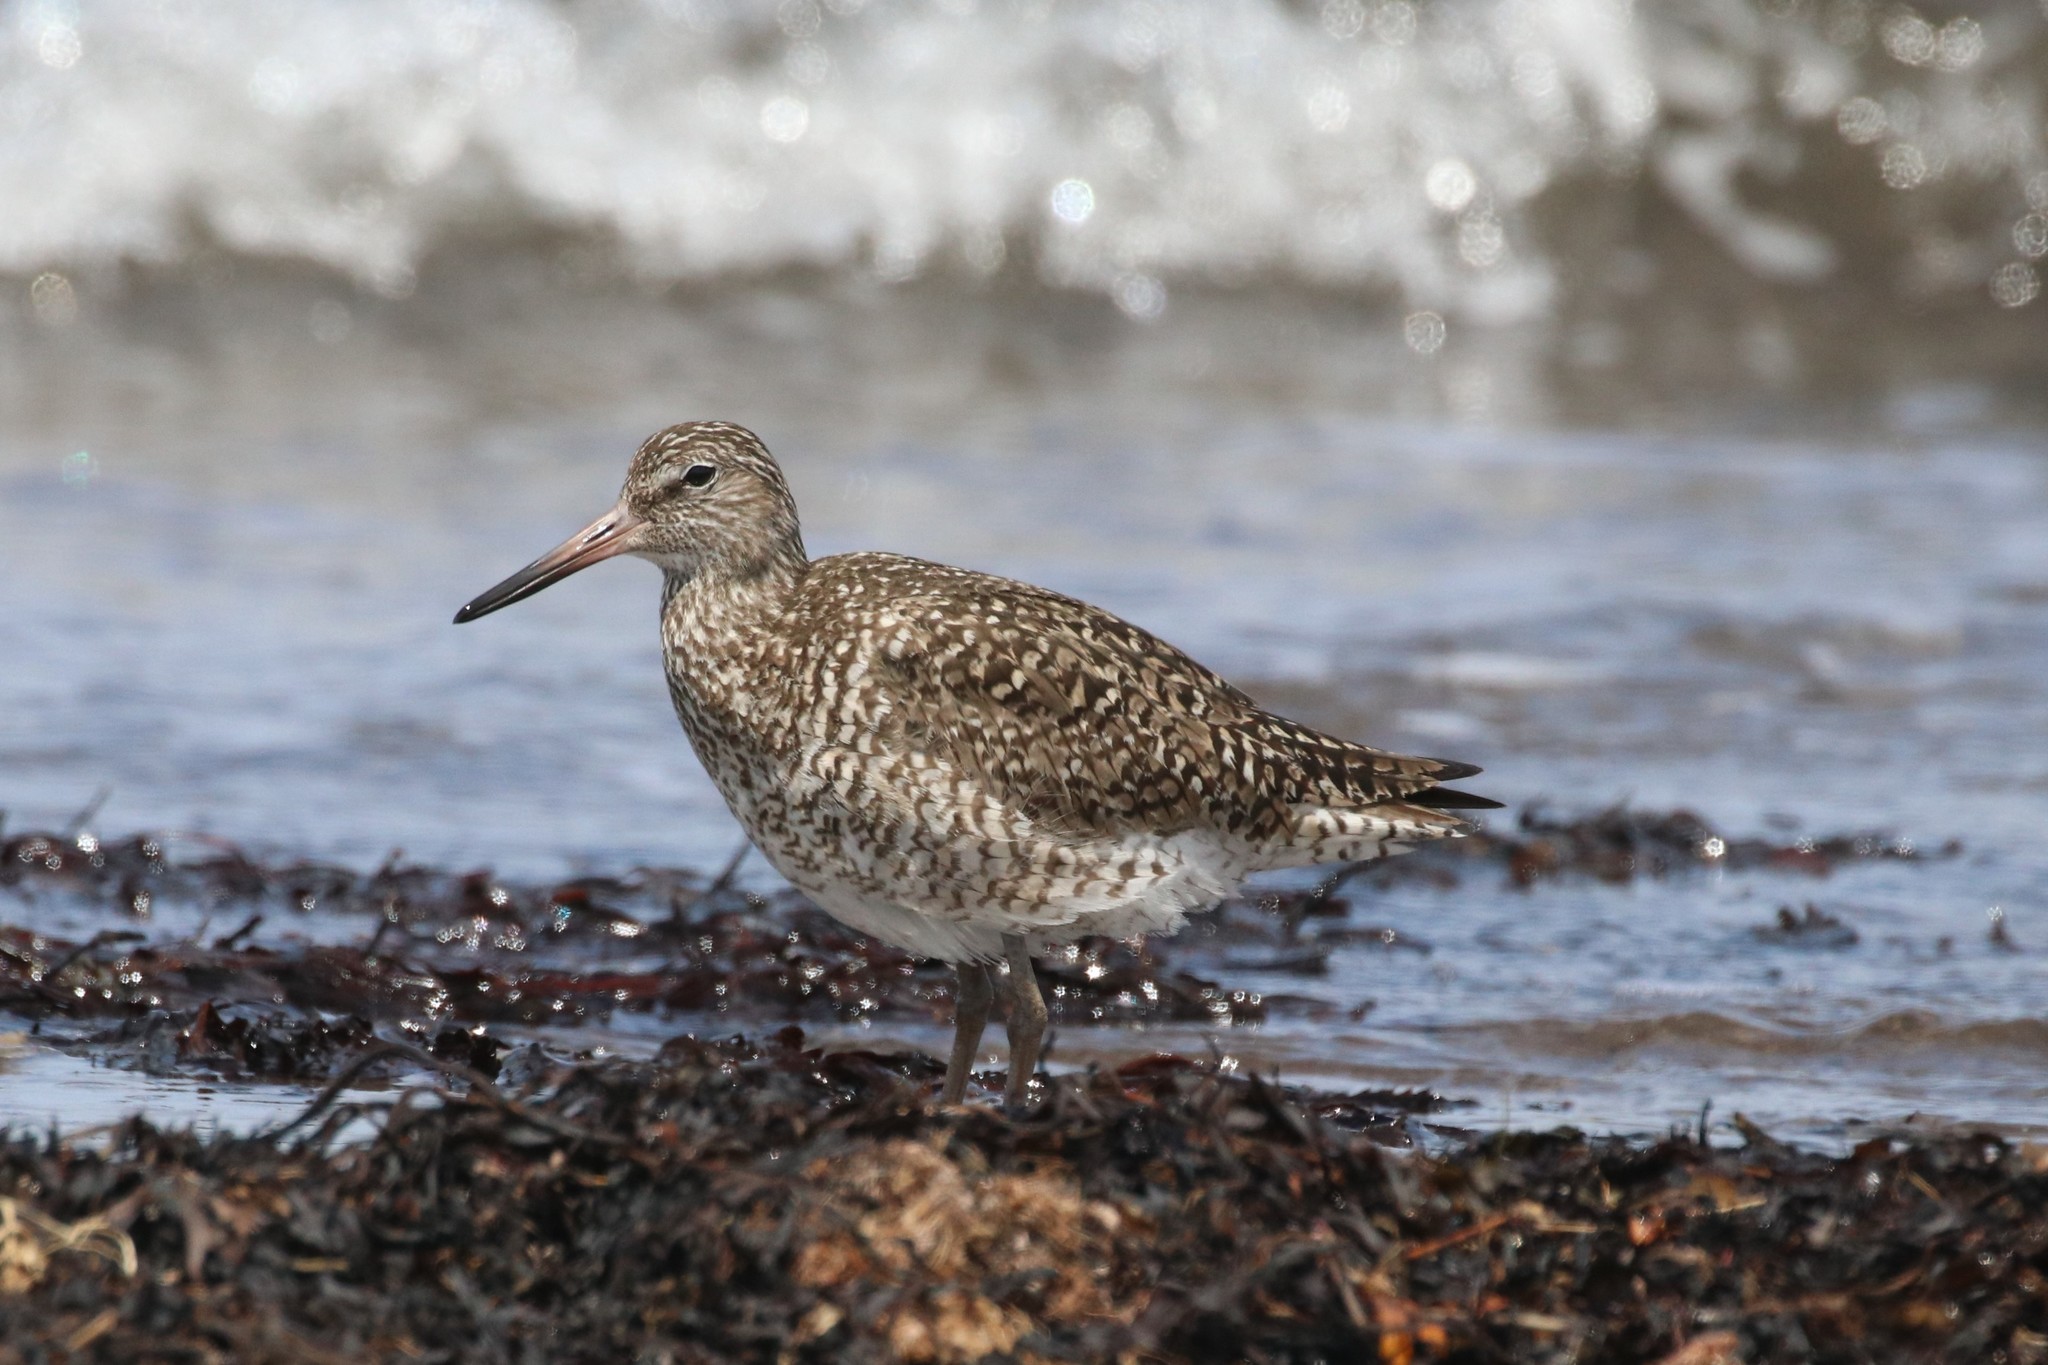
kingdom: Animalia
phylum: Chordata
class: Aves
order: Charadriiformes
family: Scolopacidae
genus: Tringa
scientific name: Tringa semipalmata
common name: Willet
